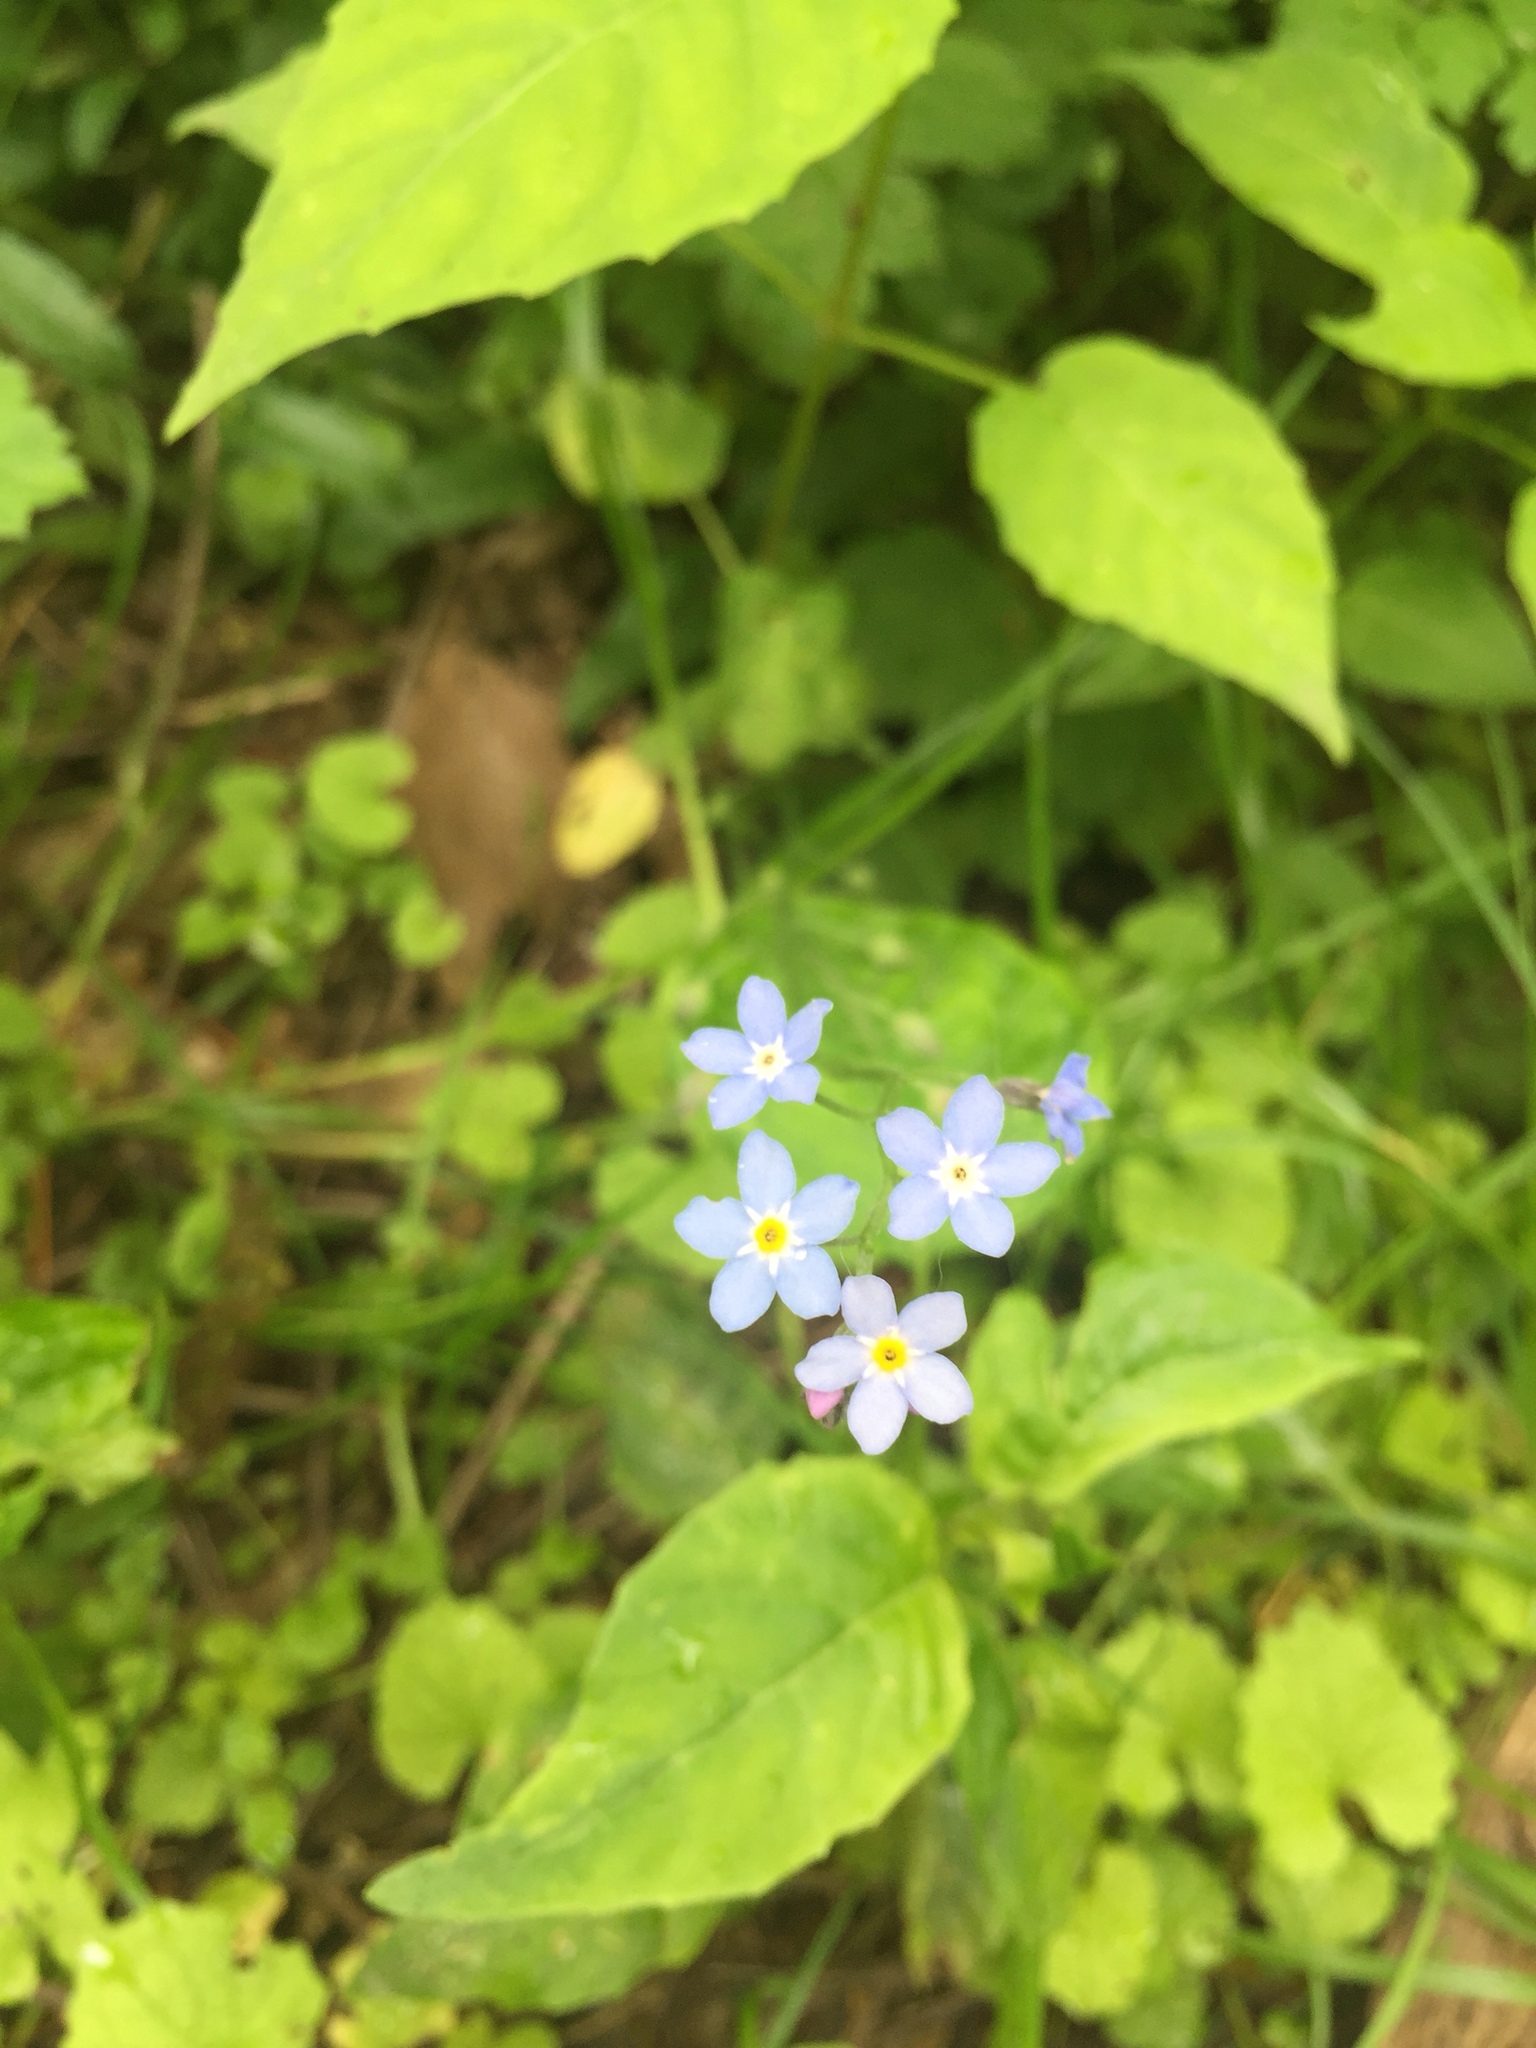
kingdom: Plantae
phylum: Tracheophyta
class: Magnoliopsida
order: Boraginales
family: Boraginaceae
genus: Myosotis
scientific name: Myosotis sylvatica
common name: Wood forget-me-not
